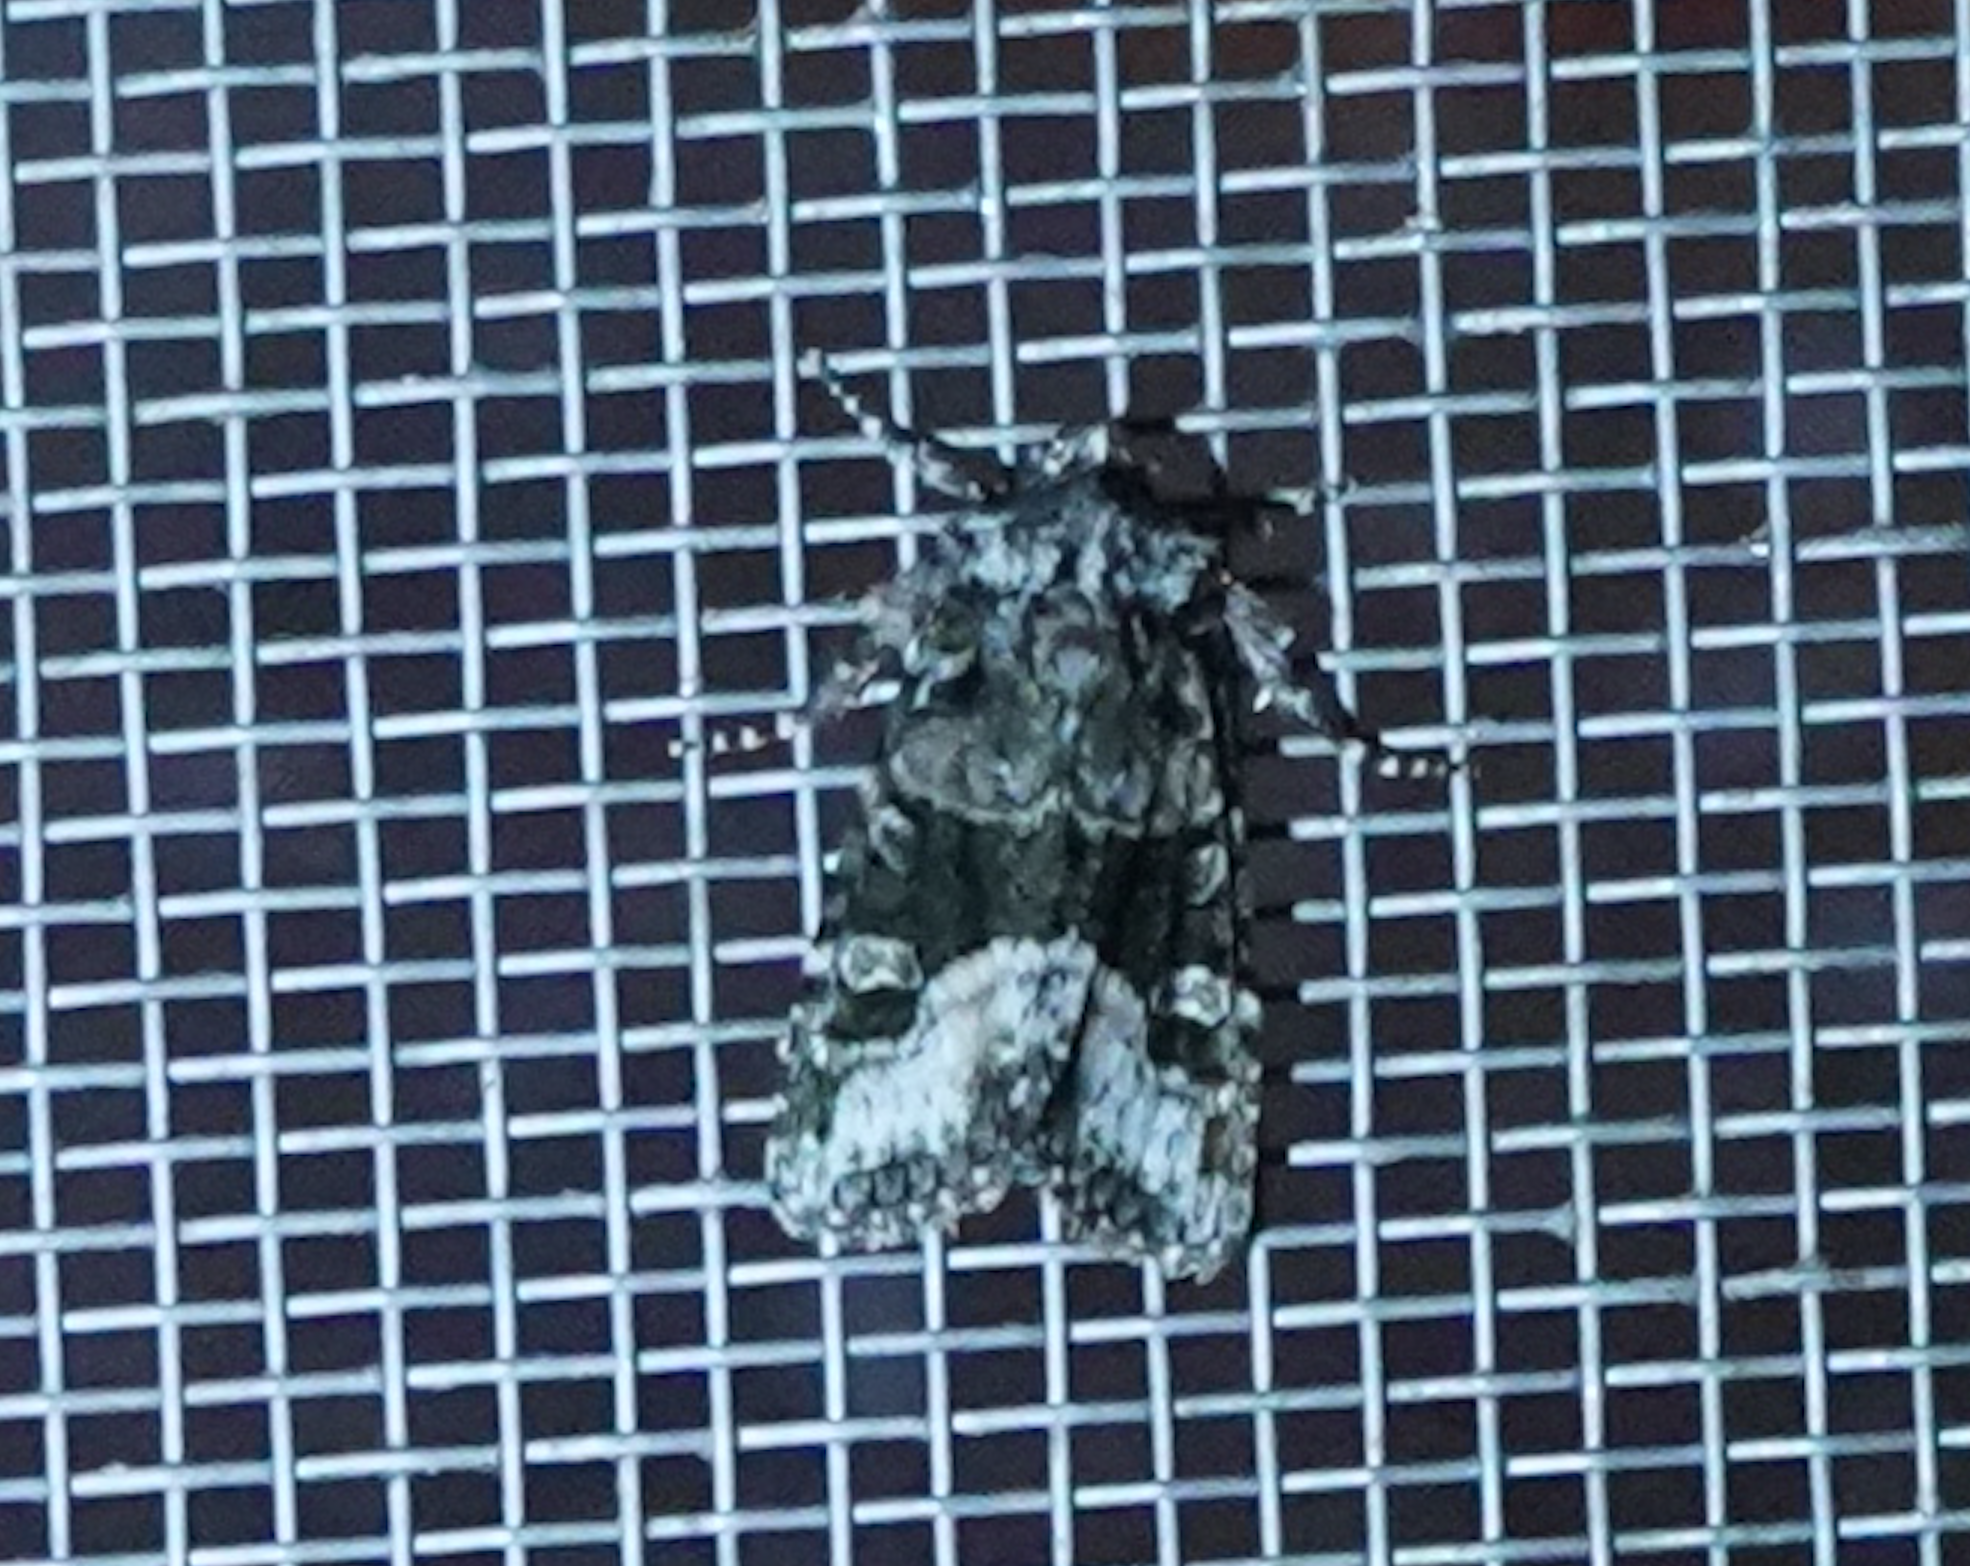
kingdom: Animalia
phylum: Arthropoda
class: Insecta
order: Lepidoptera
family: Noctuidae
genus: Lacinipolia
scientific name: Lacinipolia olivacea
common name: Olive arches moth
